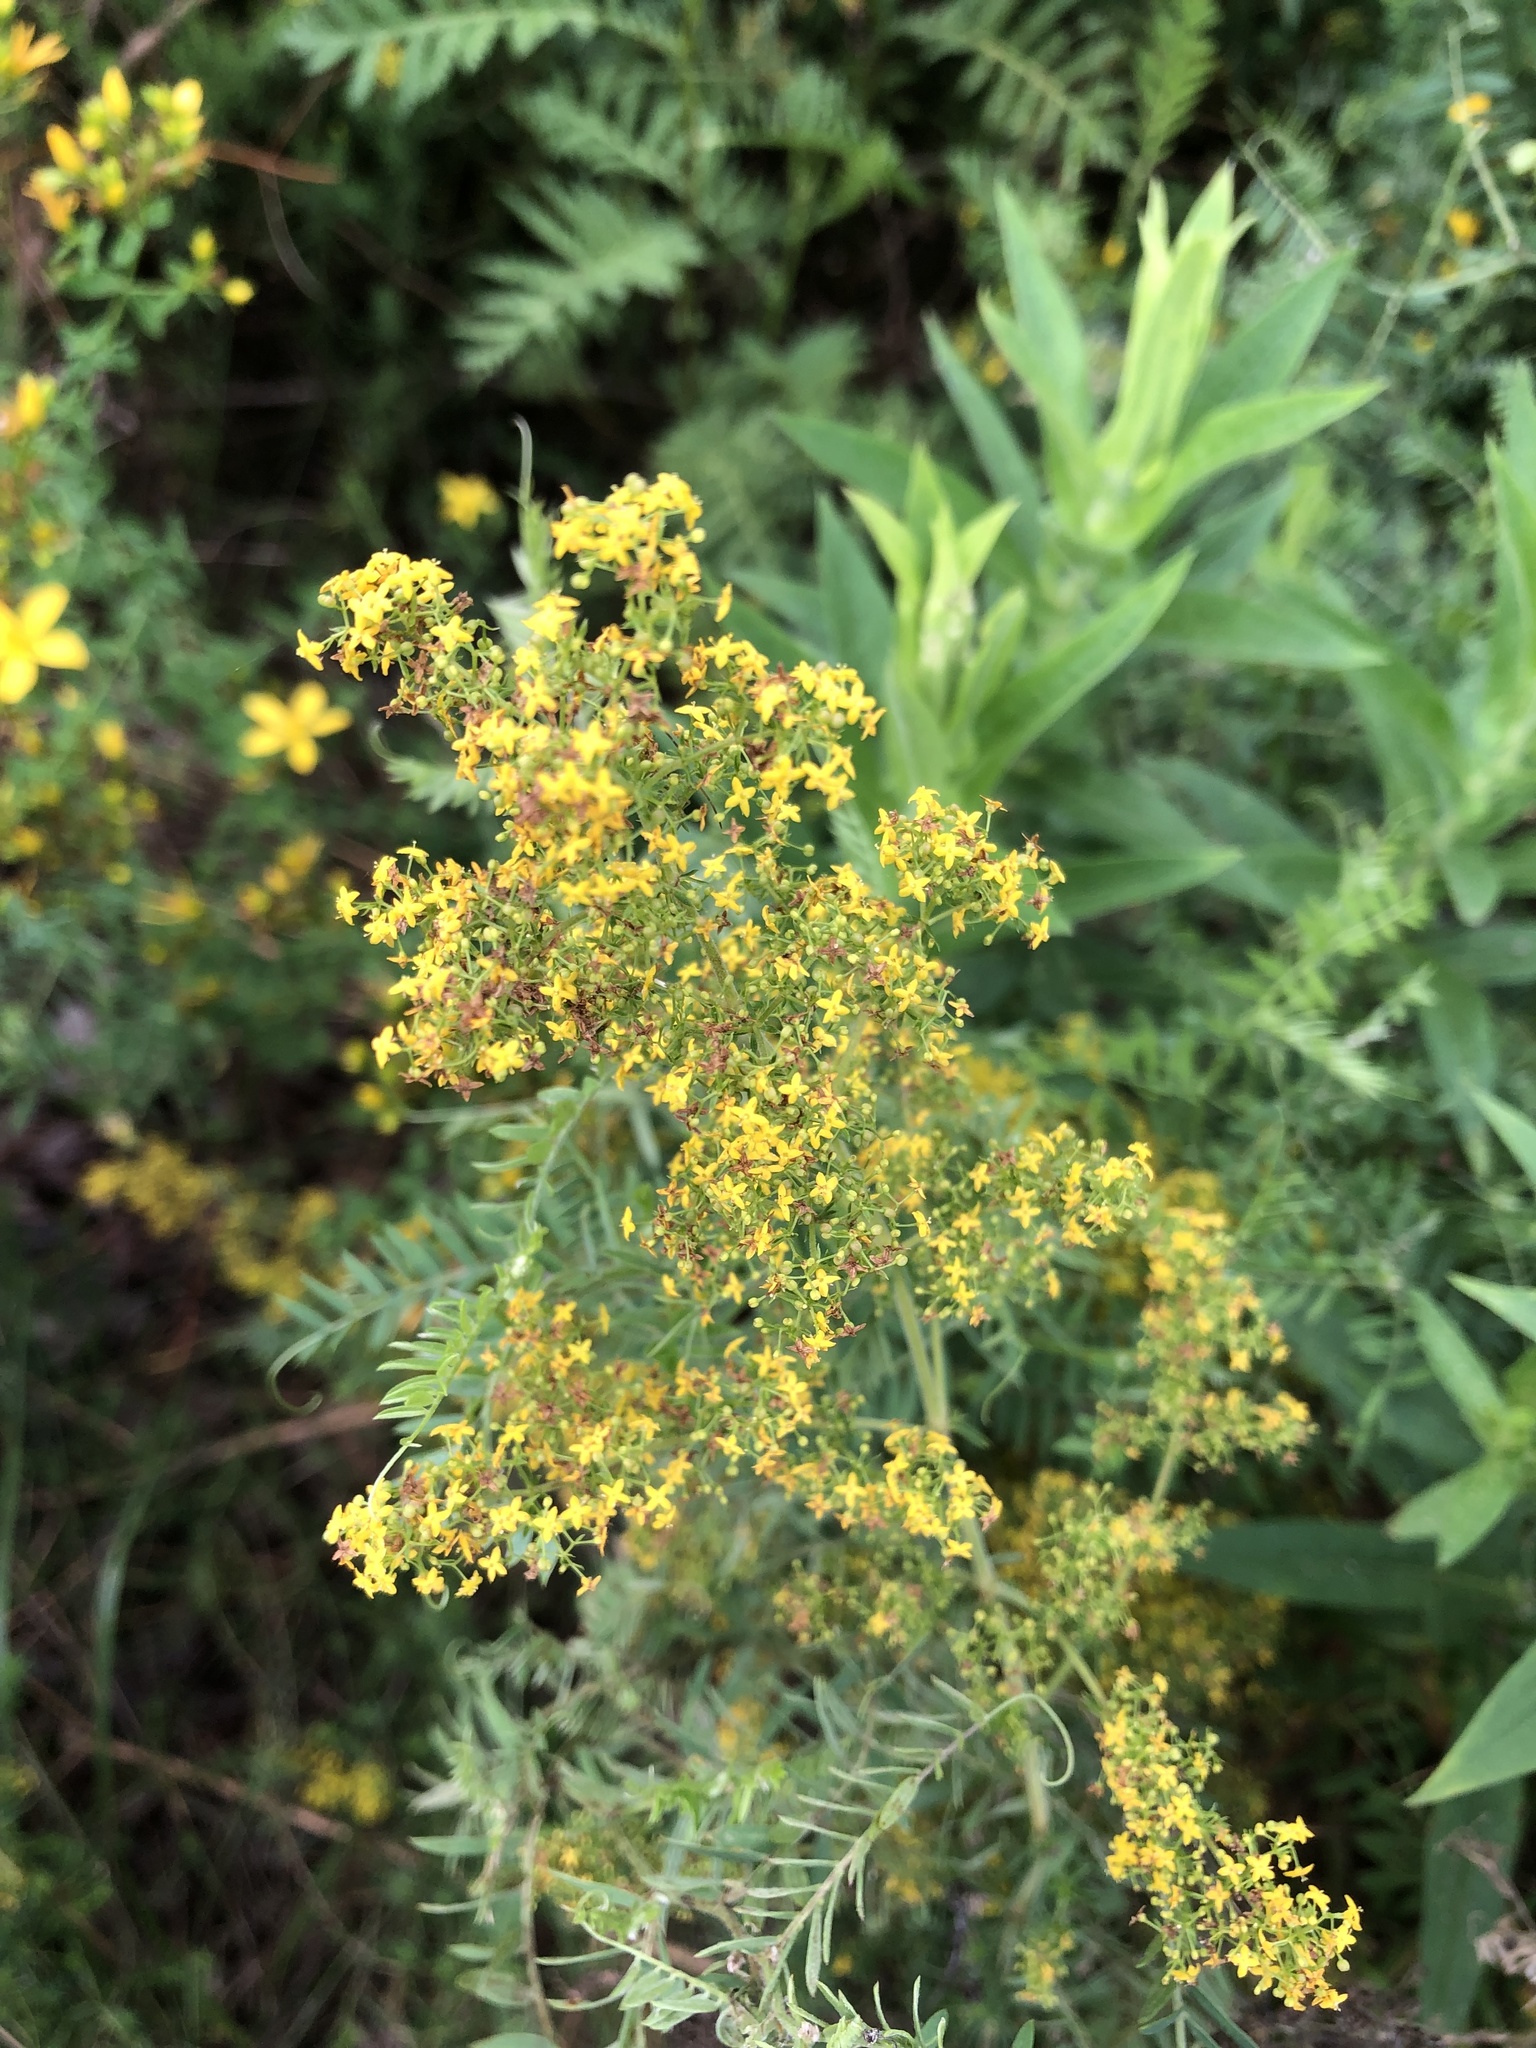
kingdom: Plantae
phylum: Tracheophyta
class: Magnoliopsida
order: Gentianales
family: Rubiaceae
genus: Galium
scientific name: Galium verum
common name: Lady's bedstraw
